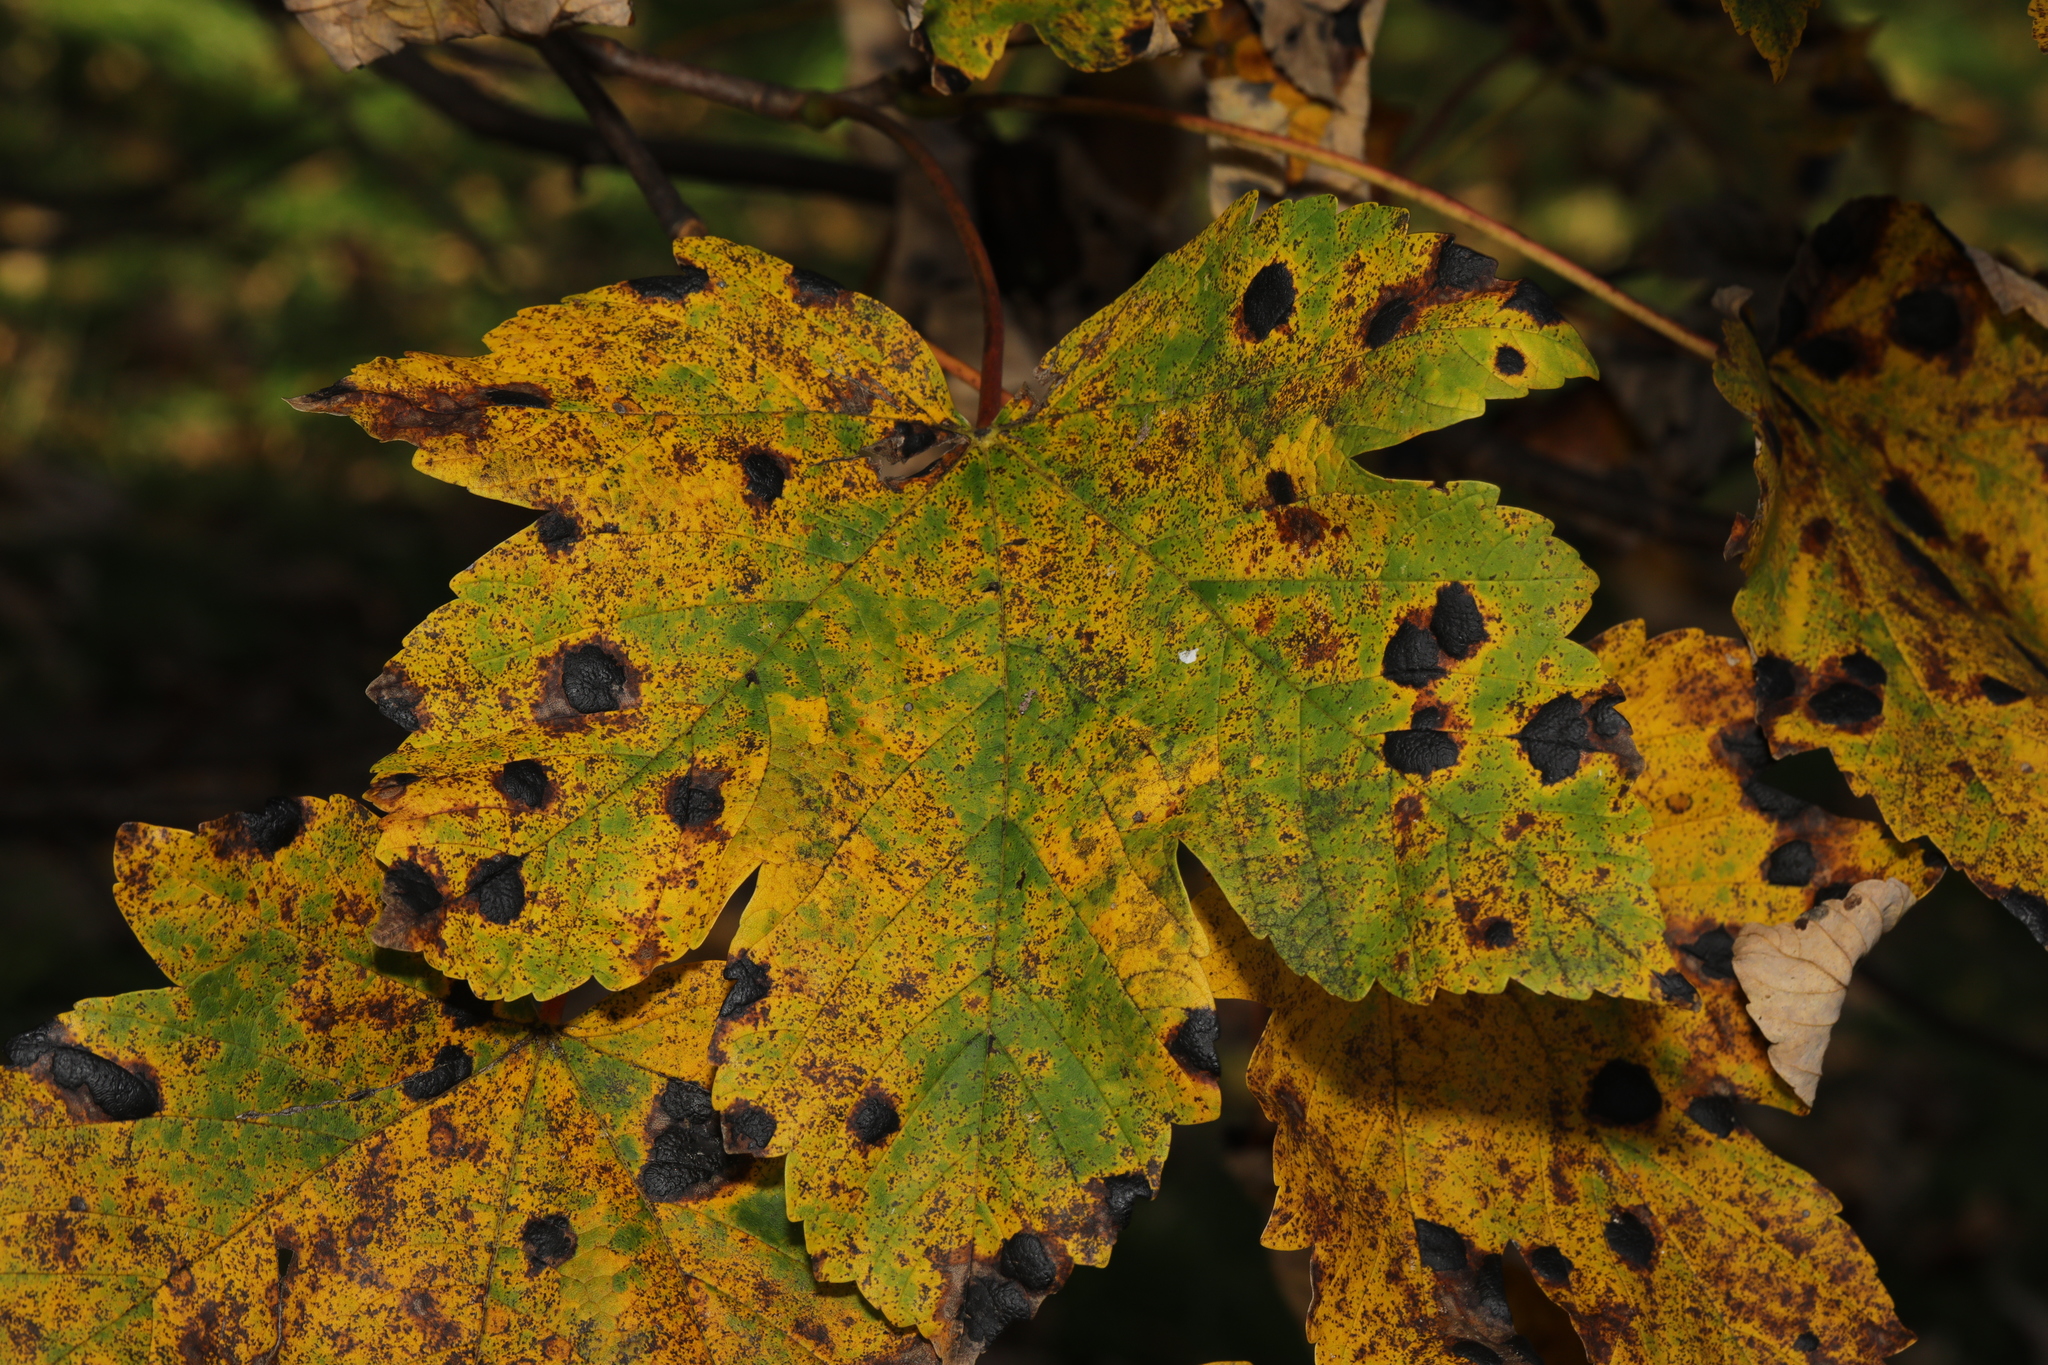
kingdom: Plantae
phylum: Tracheophyta
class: Magnoliopsida
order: Sapindales
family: Sapindaceae
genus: Acer
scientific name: Acer pseudoplatanus
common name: Sycamore
